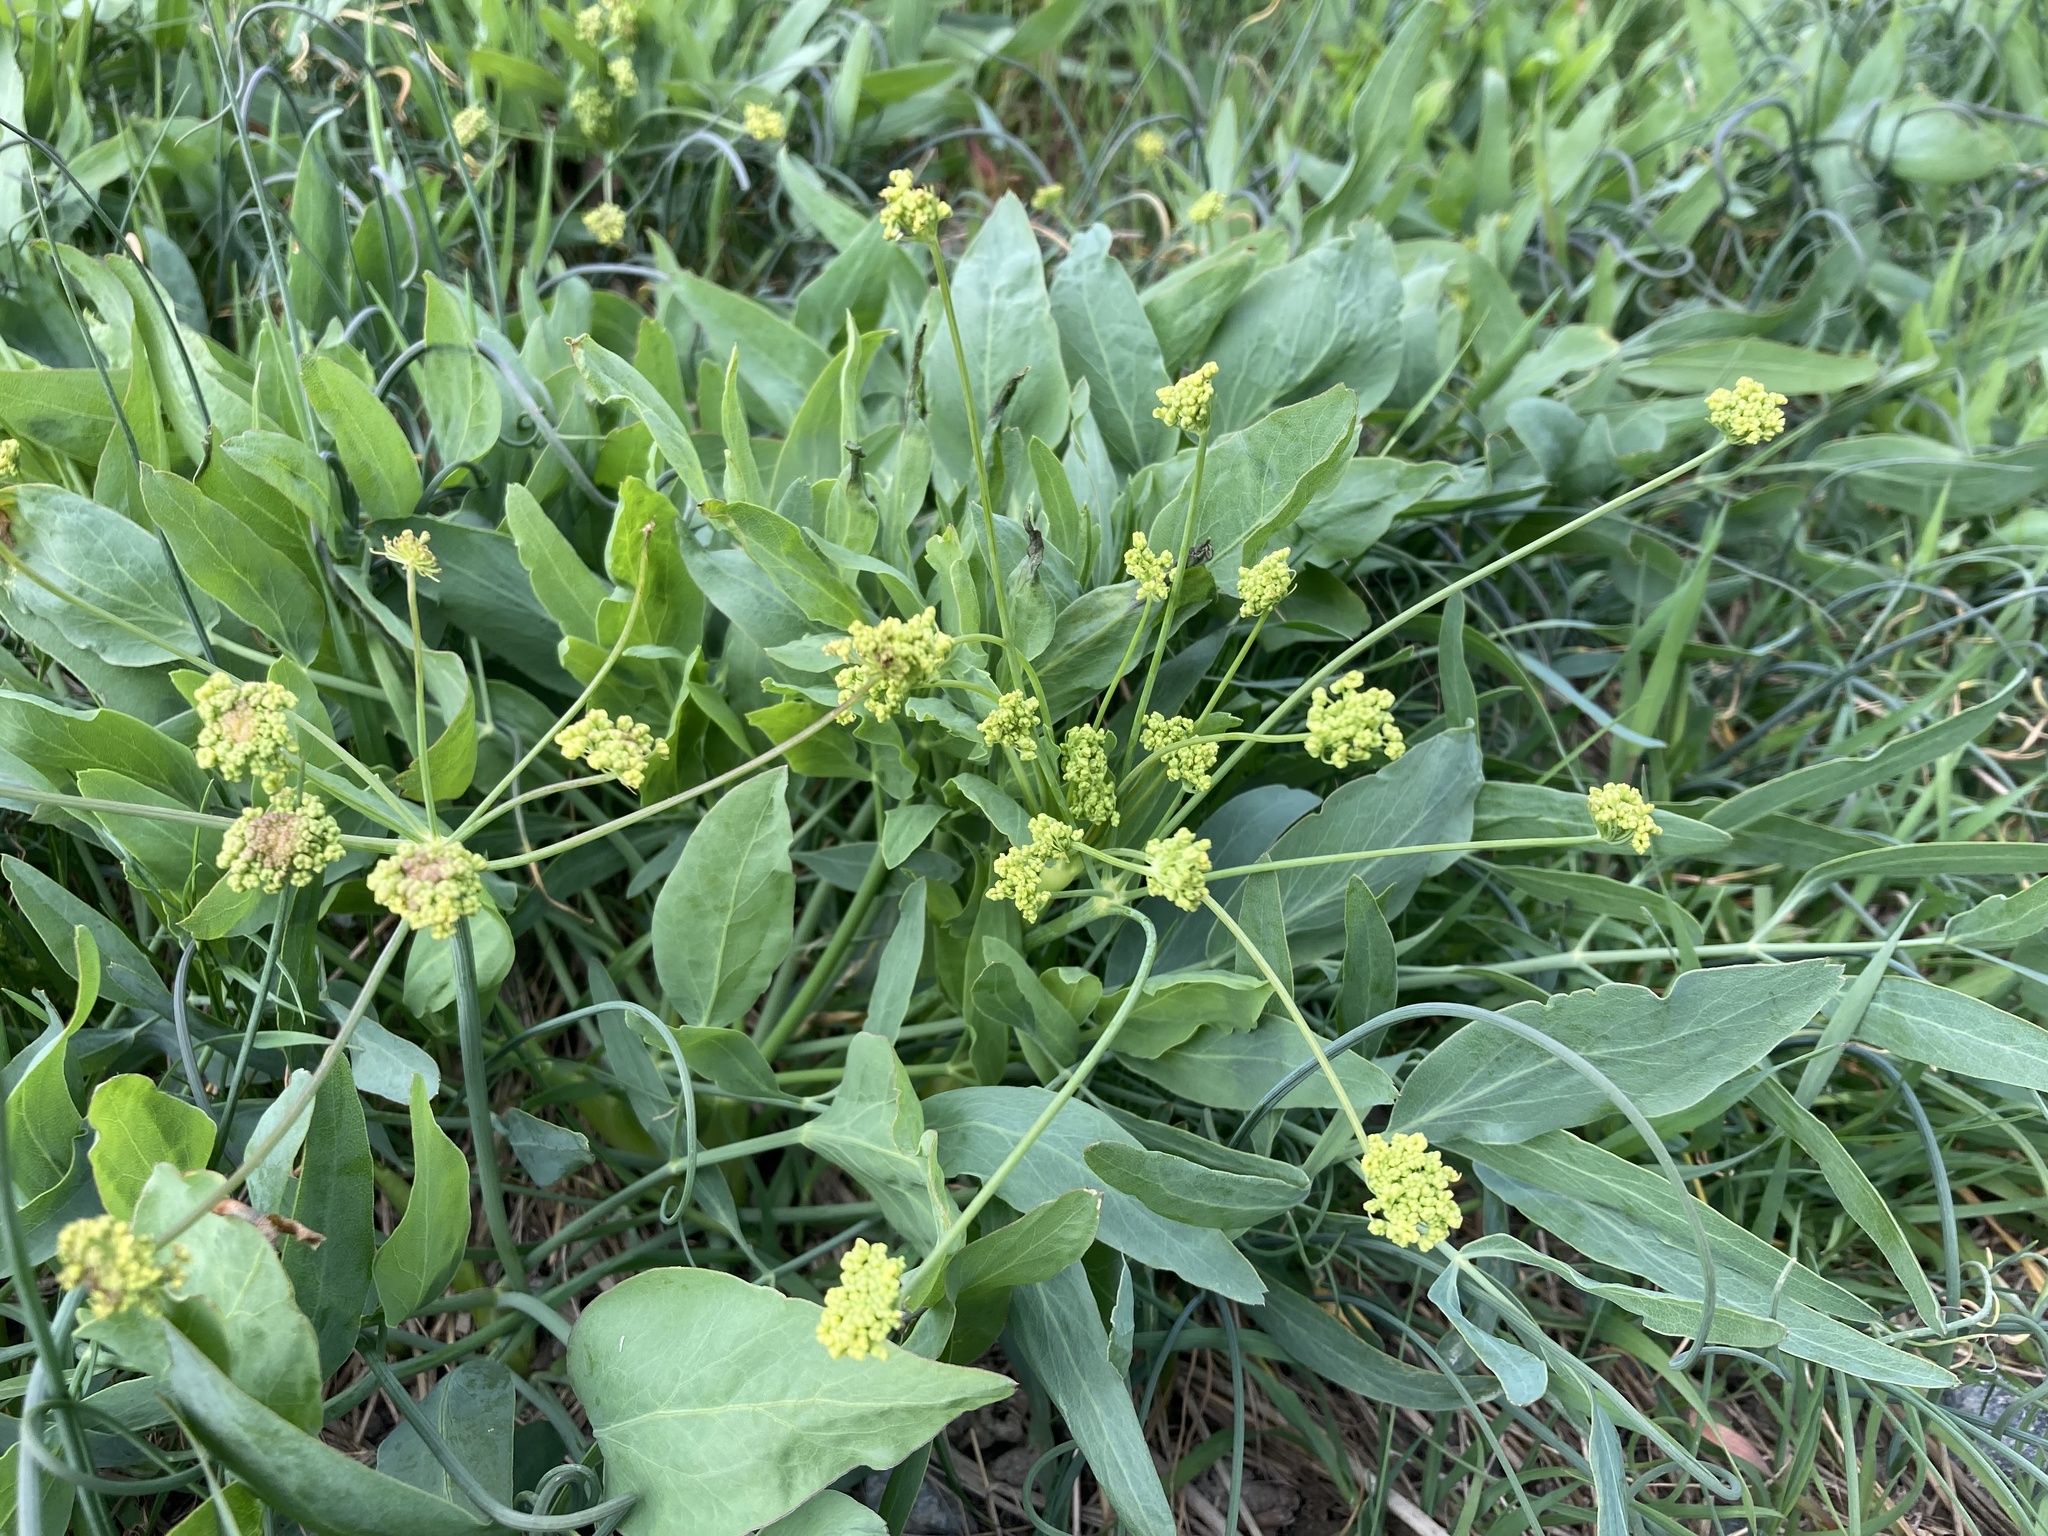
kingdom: Plantae
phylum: Tracheophyta
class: Magnoliopsida
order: Apiales
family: Apiaceae
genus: Lomatium
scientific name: Lomatium nudicaule
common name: Pestle lomatium
